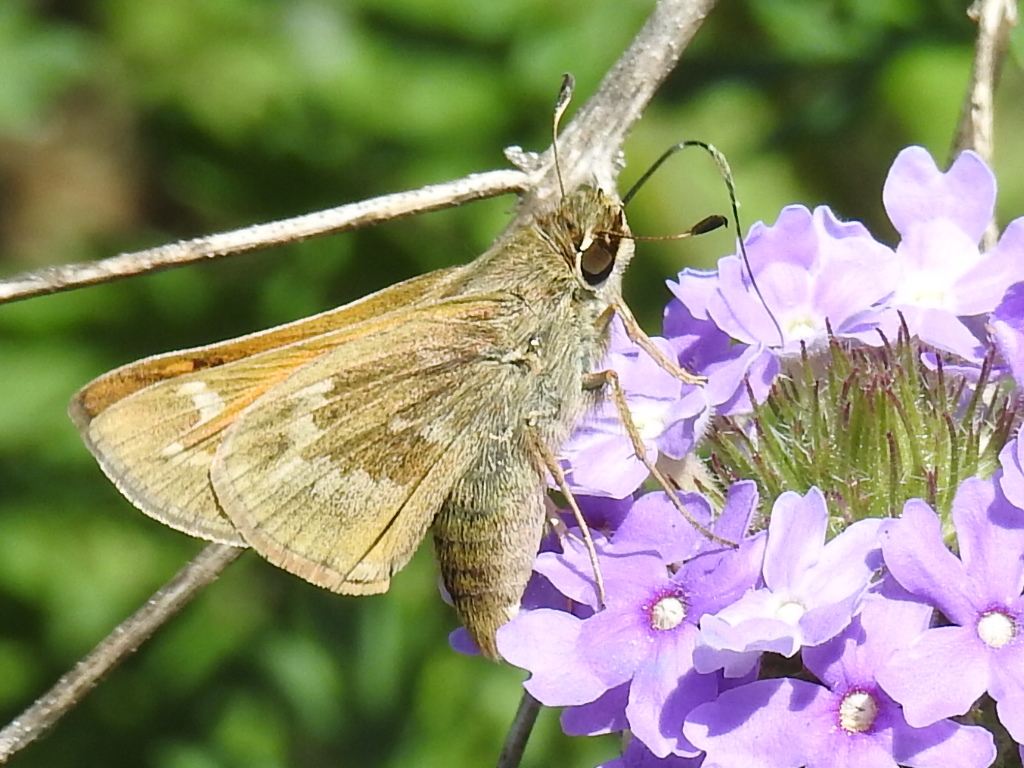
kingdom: Animalia
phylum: Arthropoda
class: Insecta
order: Lepidoptera
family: Hesperiidae
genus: Atalopedes
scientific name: Atalopedes
